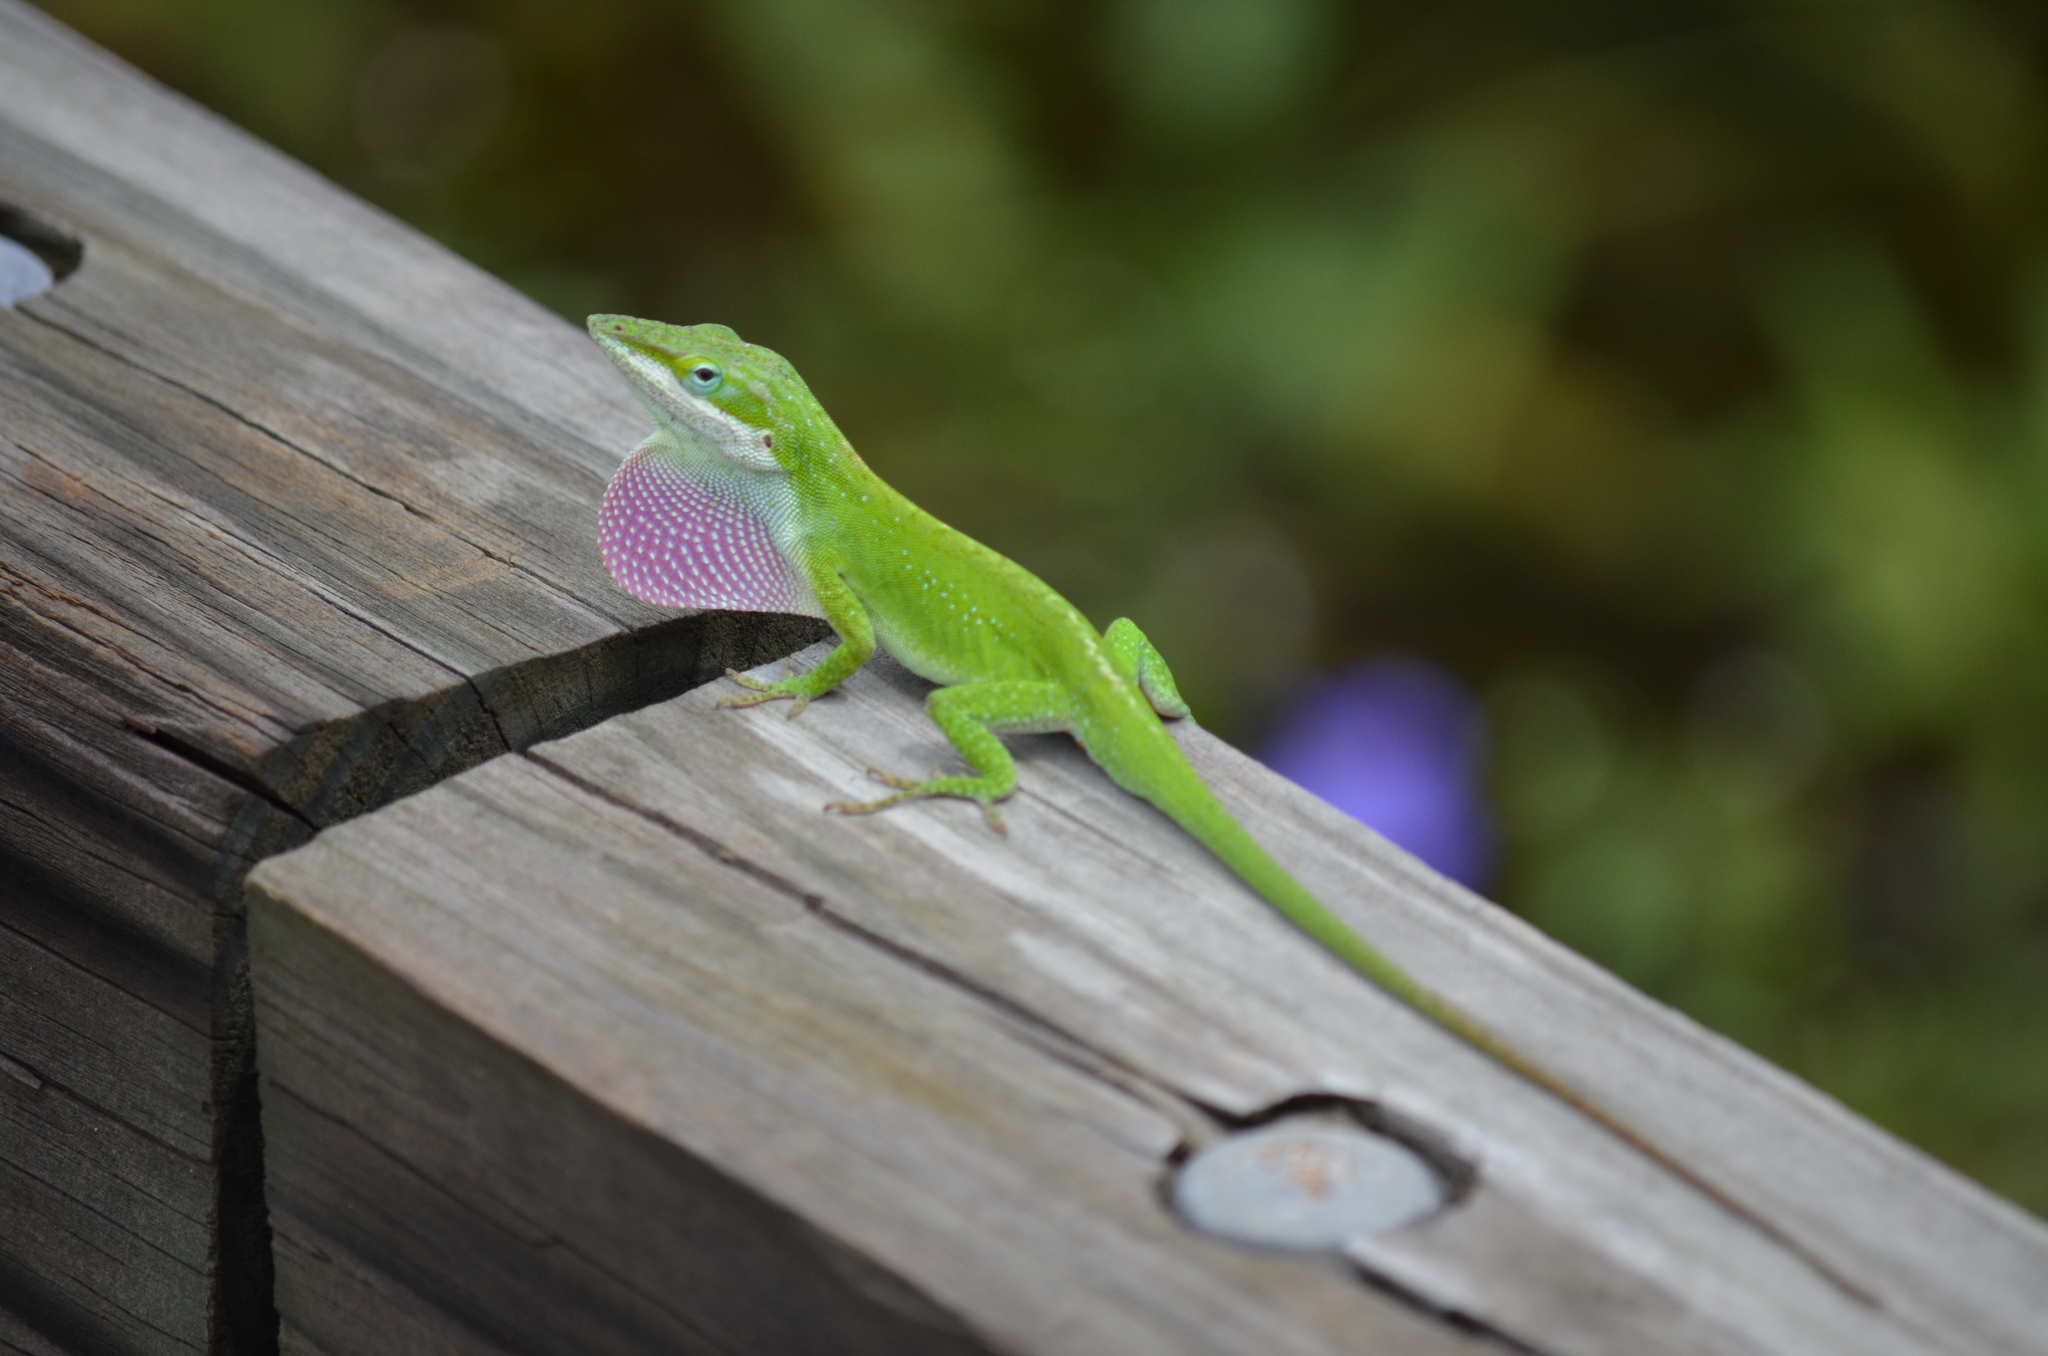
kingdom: Animalia
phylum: Chordata
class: Squamata
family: Dactyloidae
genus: Anolis
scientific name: Anolis carolinensis
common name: Green anole
